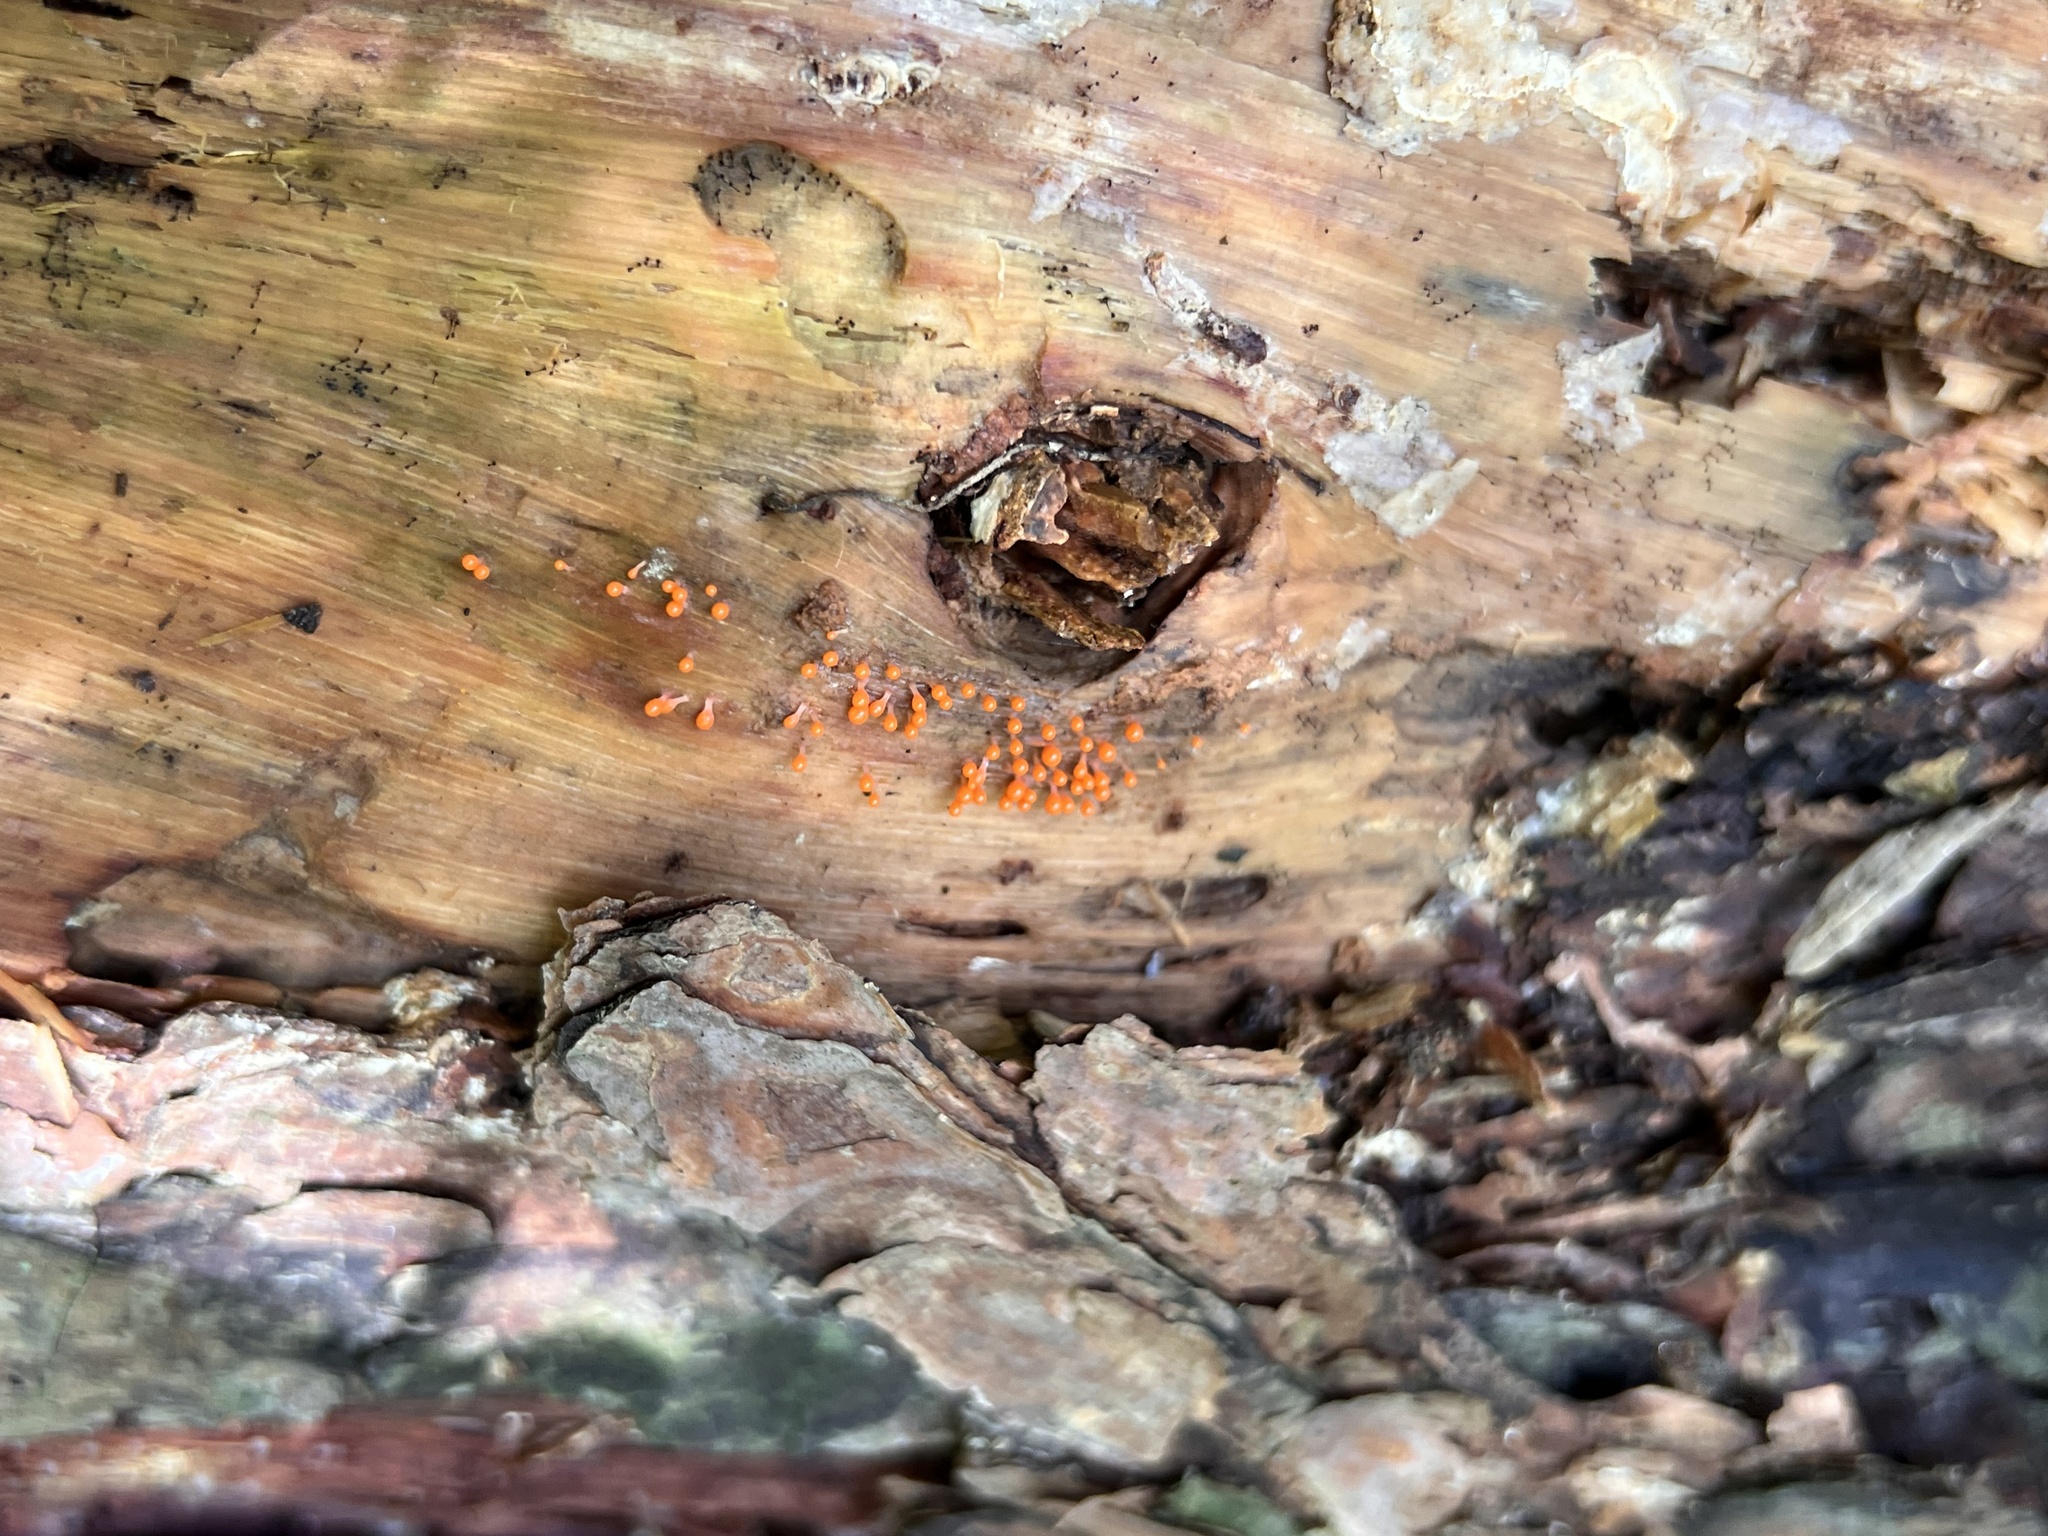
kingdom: Protozoa
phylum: Mycetozoa
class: Myxomycetes
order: Trichiales
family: Arcyriaceae
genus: Hemitrichia
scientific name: Hemitrichia decipiens
